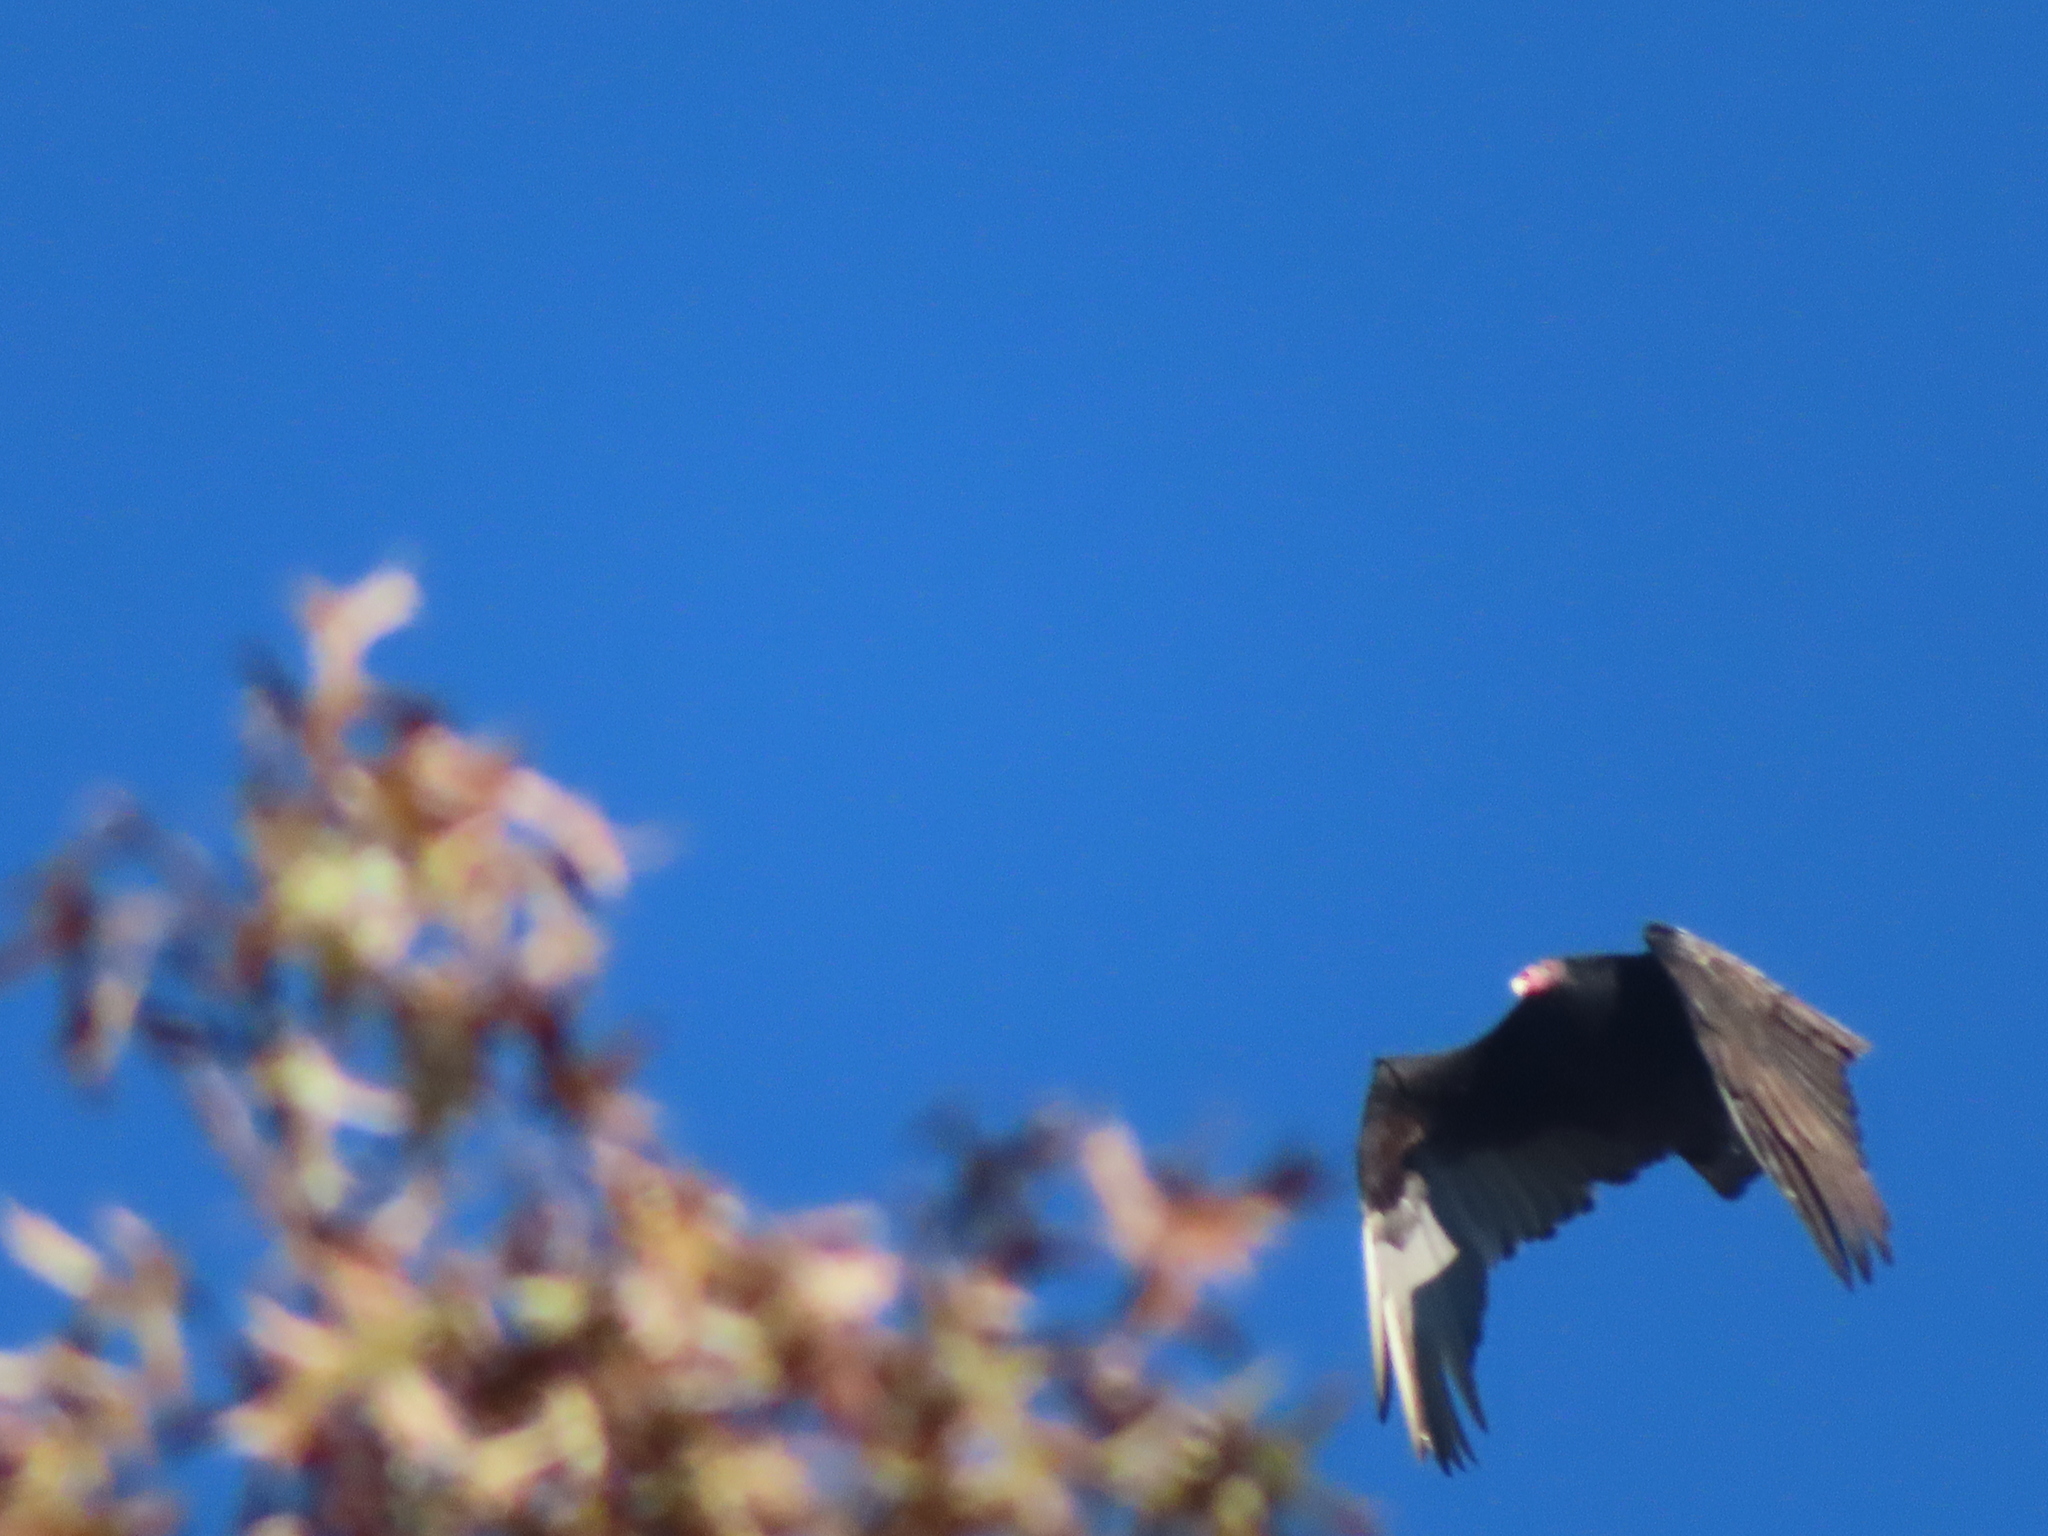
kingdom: Animalia
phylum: Chordata
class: Aves
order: Accipitriformes
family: Cathartidae
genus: Cathartes
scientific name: Cathartes aura
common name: Turkey vulture
